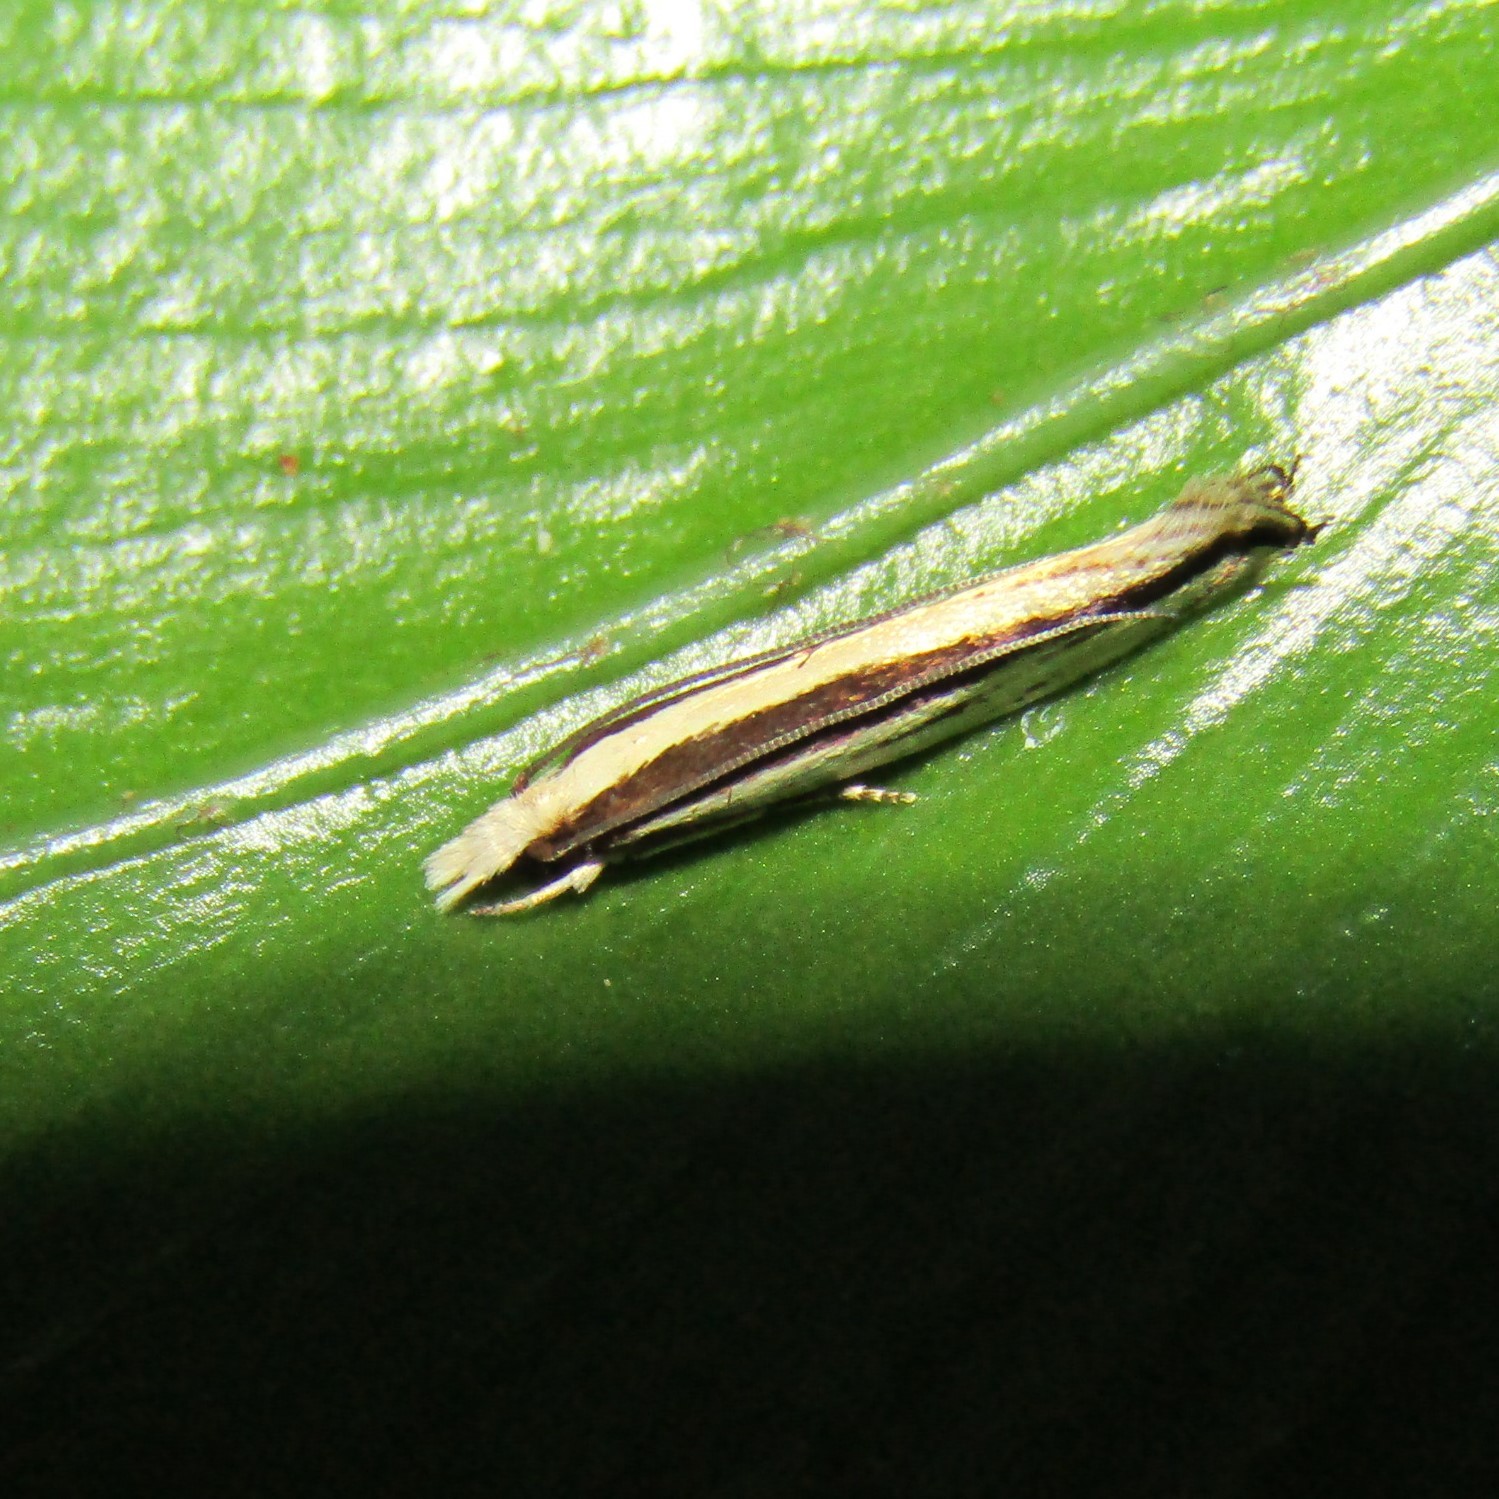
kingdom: Animalia
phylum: Arthropoda
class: Insecta
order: Lepidoptera
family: Tineidae
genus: Erechthias
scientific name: Erechthias stilbella
